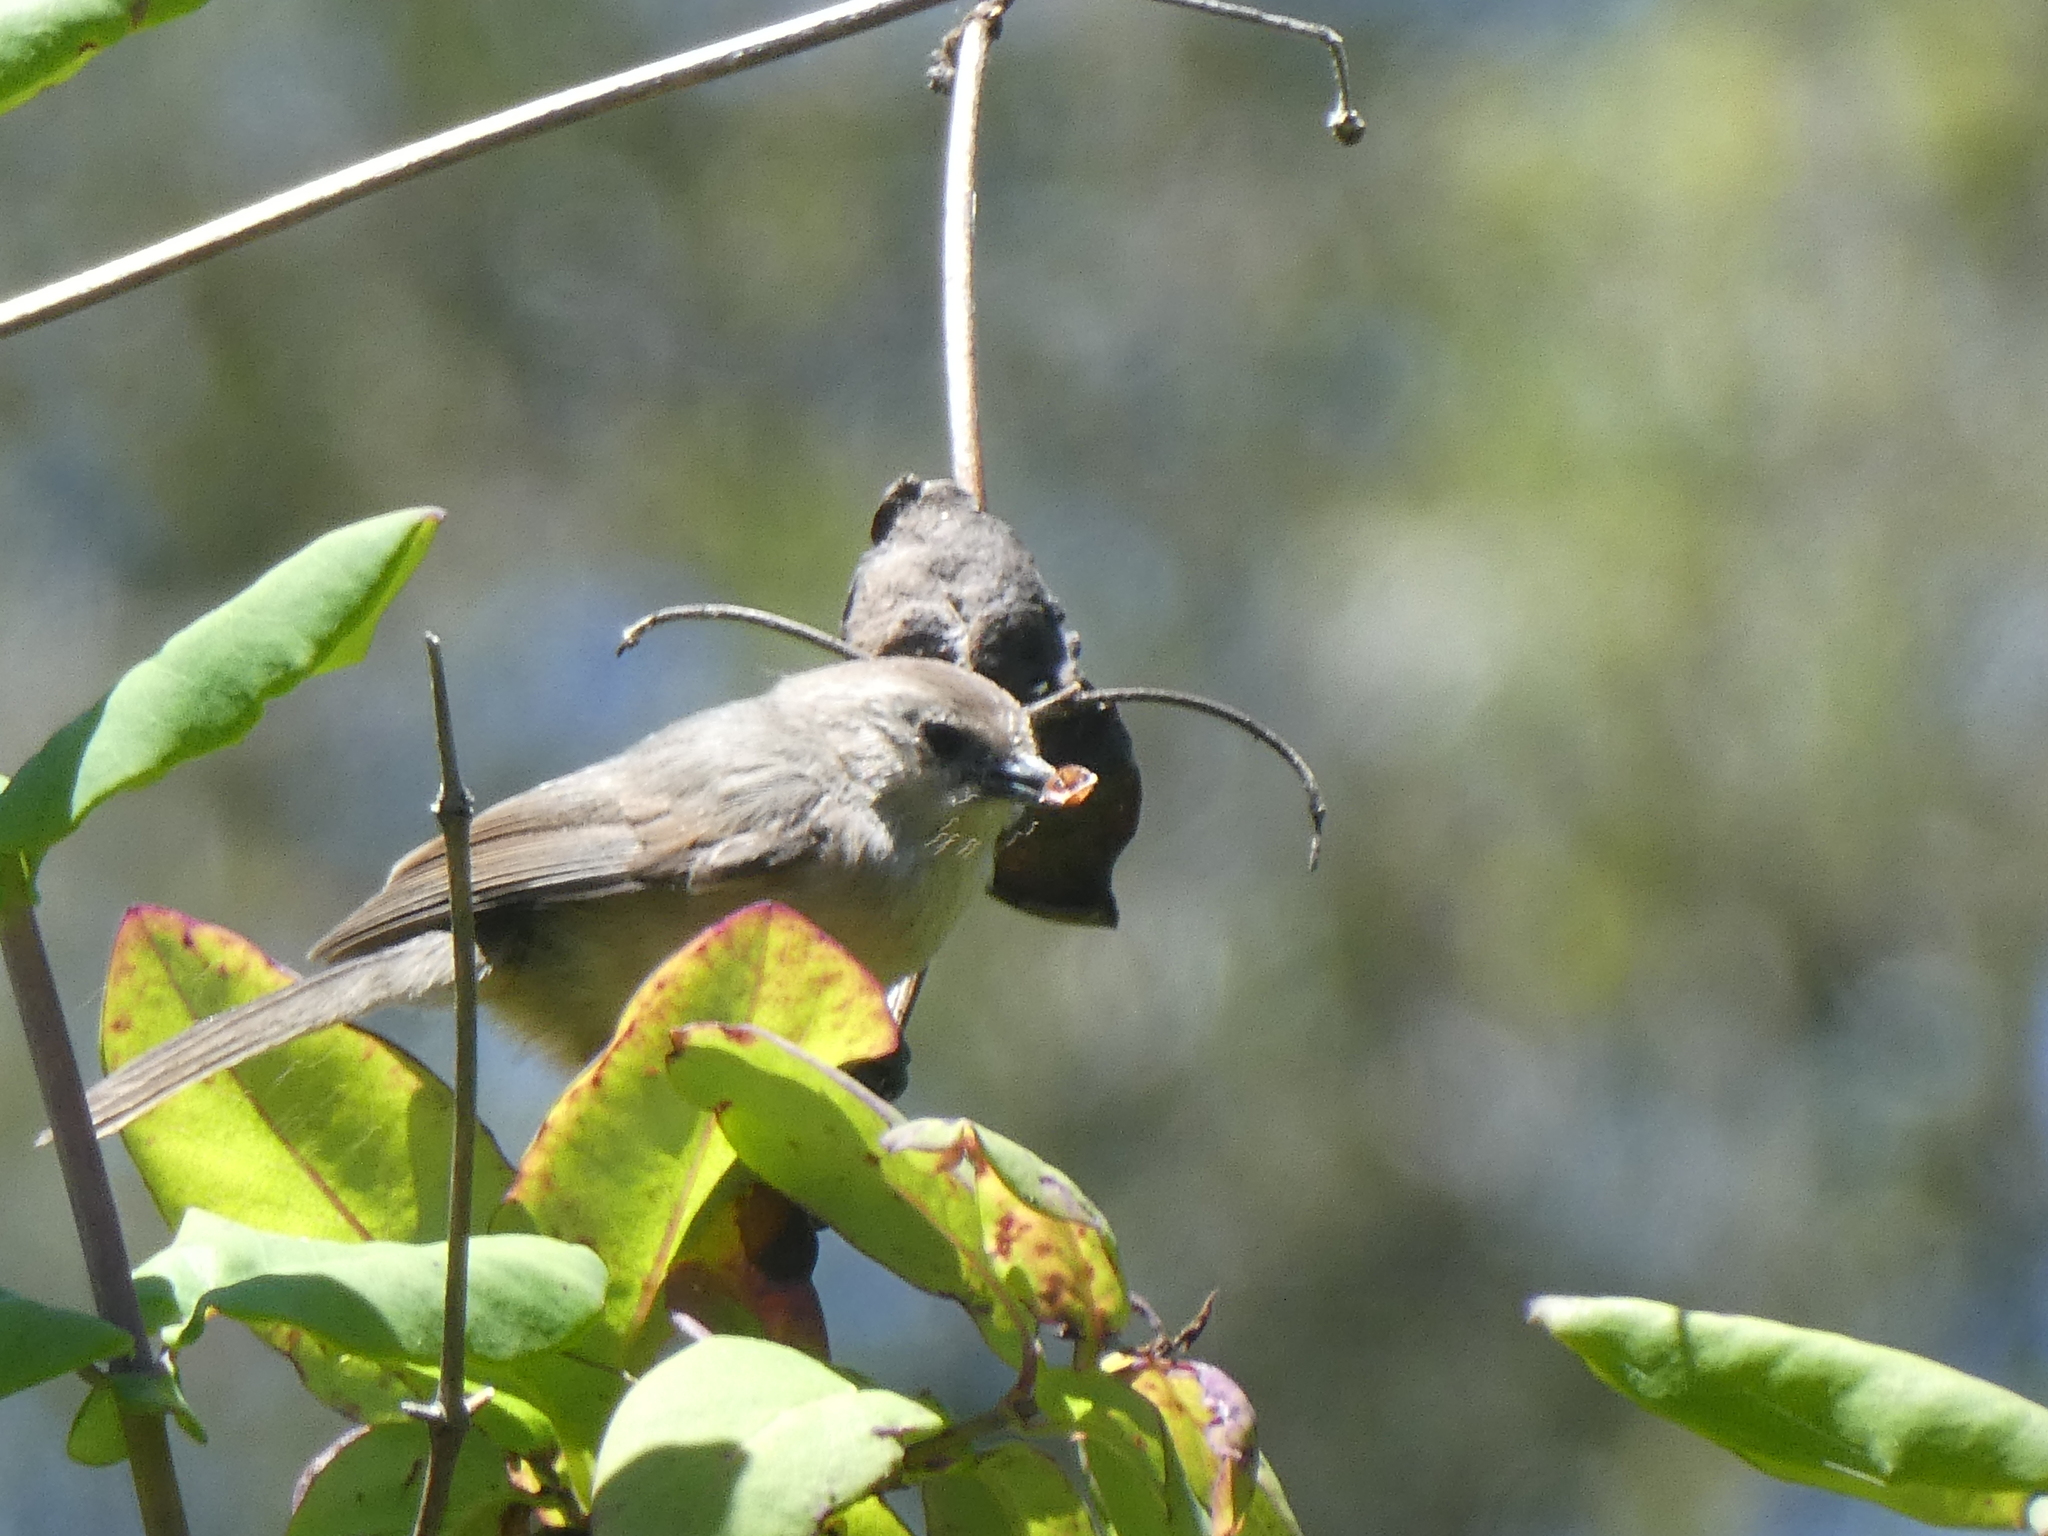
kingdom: Animalia
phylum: Chordata
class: Aves
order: Passeriformes
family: Aegithalidae
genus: Psaltriparus
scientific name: Psaltriparus minimus
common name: American bushtit
